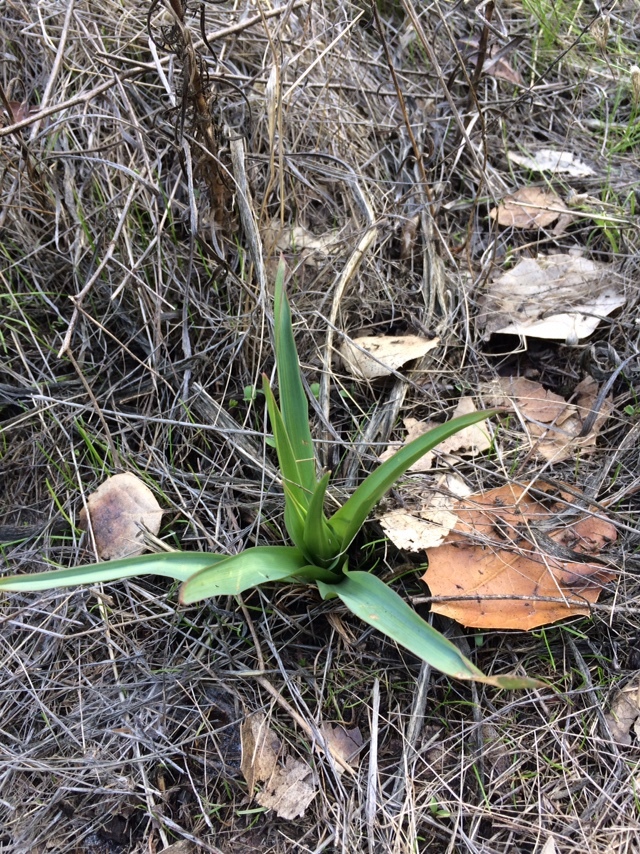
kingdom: Plantae
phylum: Tracheophyta
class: Liliopsida
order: Asparagales
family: Asparagaceae
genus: Chlorogalum
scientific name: Chlorogalum pomeridianum
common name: Amole
